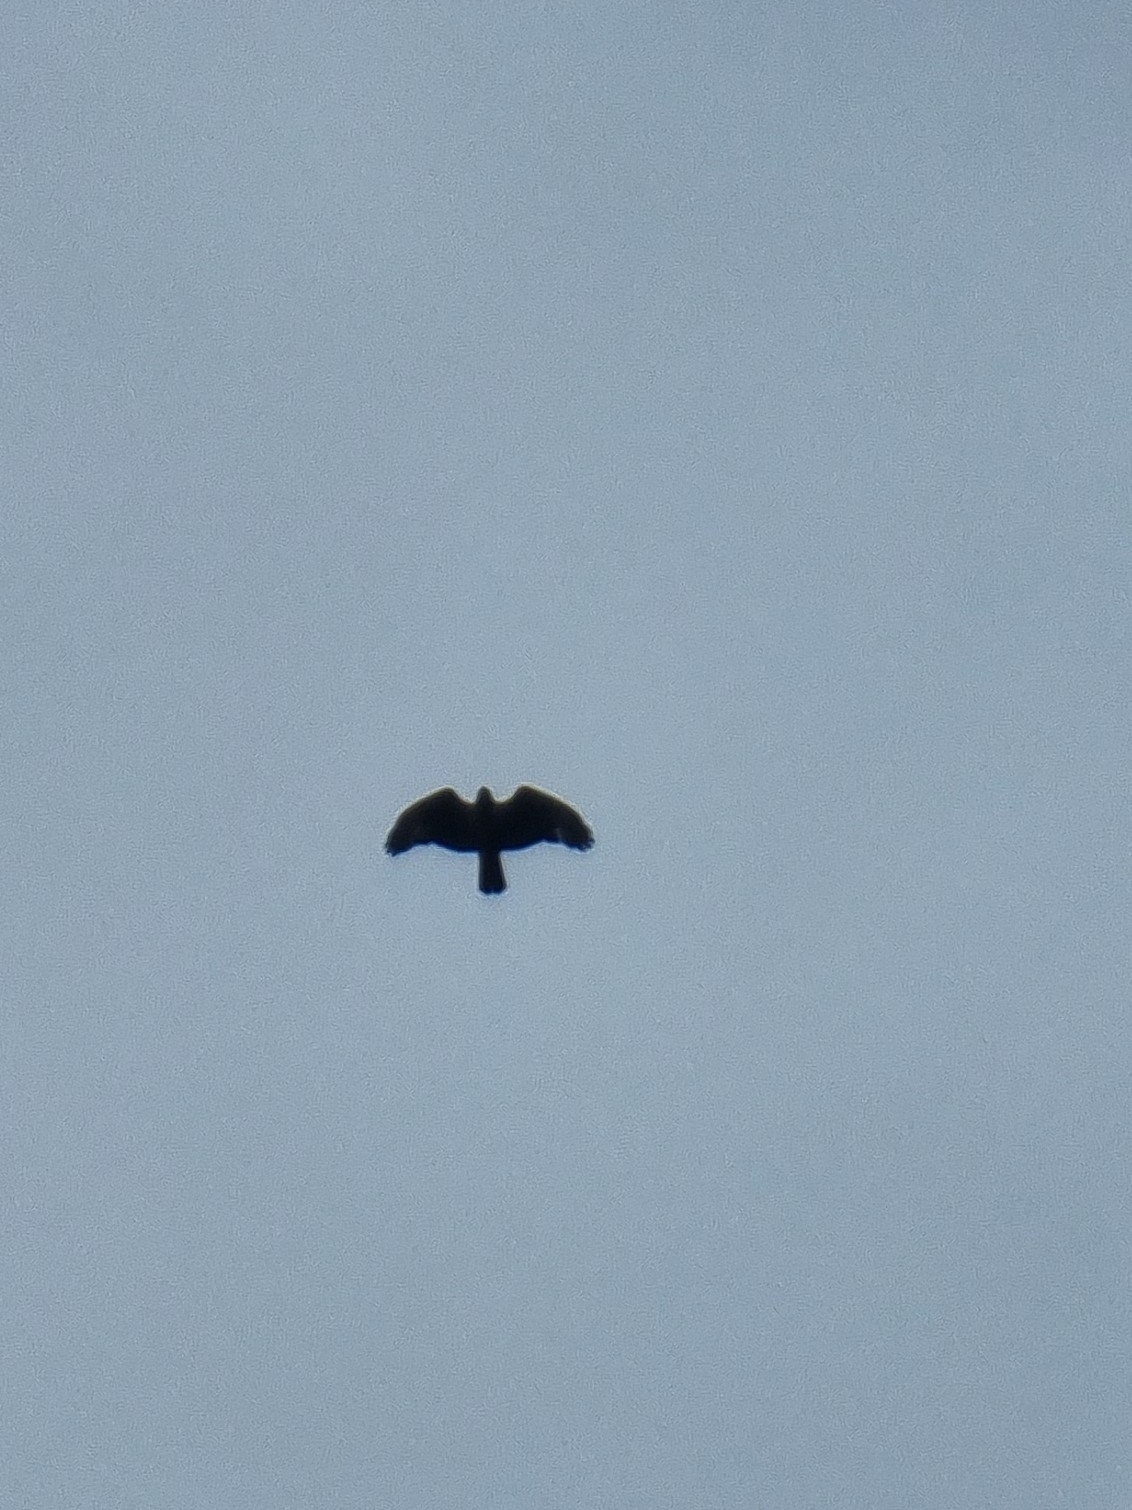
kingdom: Animalia
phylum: Chordata
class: Aves
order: Accipitriformes
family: Accipitridae
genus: Buteo
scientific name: Buteo buteo
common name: Common buzzard
